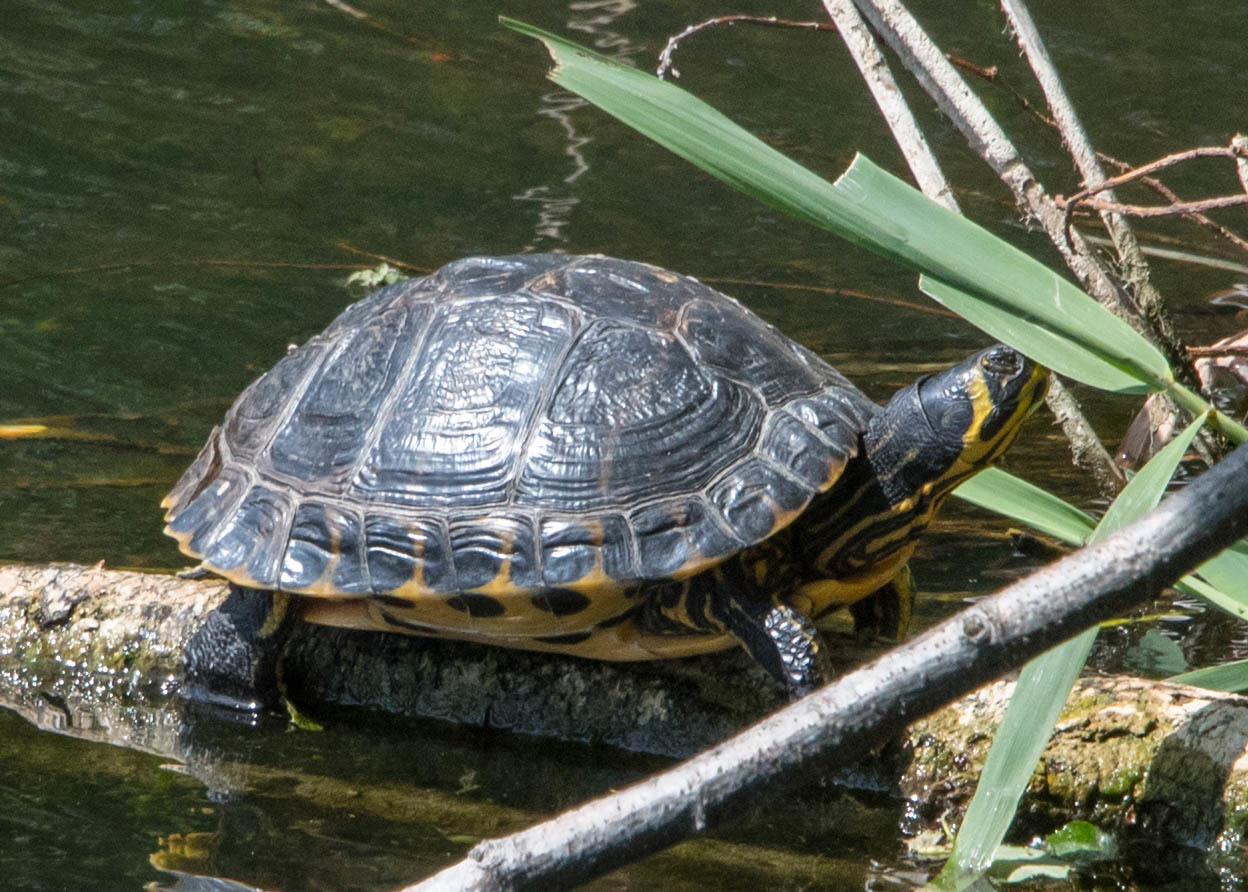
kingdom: Animalia
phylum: Chordata
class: Testudines
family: Emydidae
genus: Trachemys
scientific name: Trachemys scripta
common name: Slider
